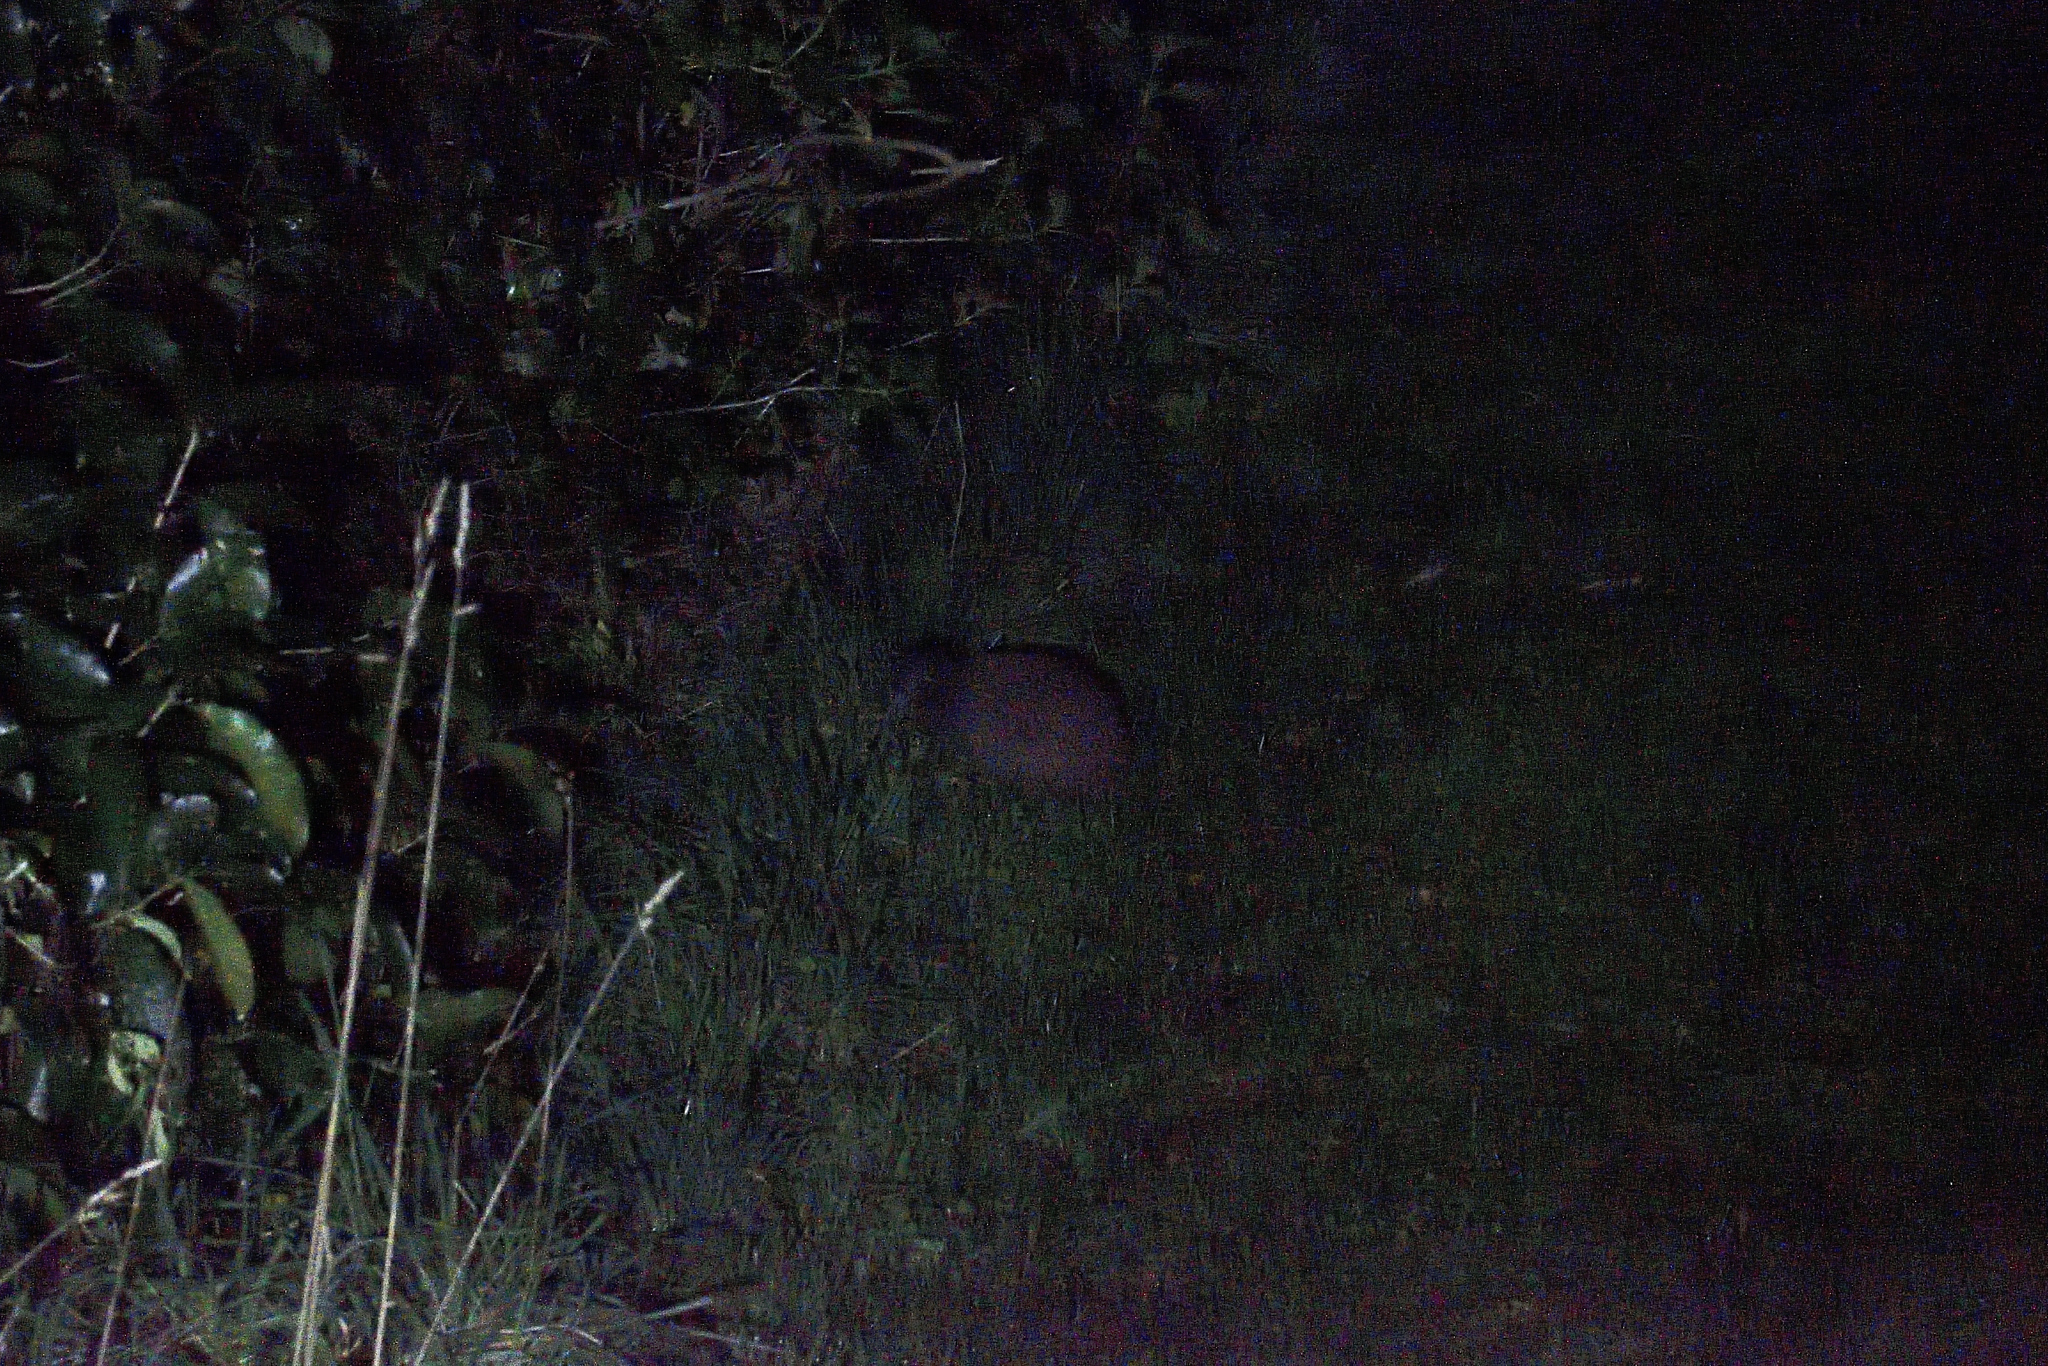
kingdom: Animalia
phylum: Chordata
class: Aves
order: Apterygiformes
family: Apterygidae
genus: Apteryx
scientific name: Apteryx rowi
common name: Okarito kiwi
